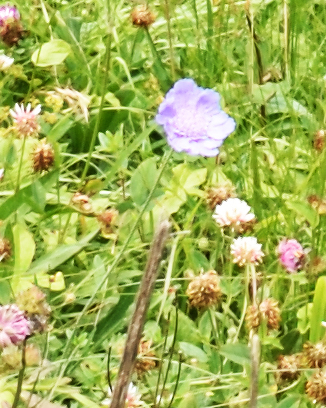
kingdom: Plantae
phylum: Tracheophyta
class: Magnoliopsida
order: Dipsacales
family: Caprifoliaceae
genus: Lomelosia
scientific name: Lomelosia caucasica
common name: Pincushion-flower
